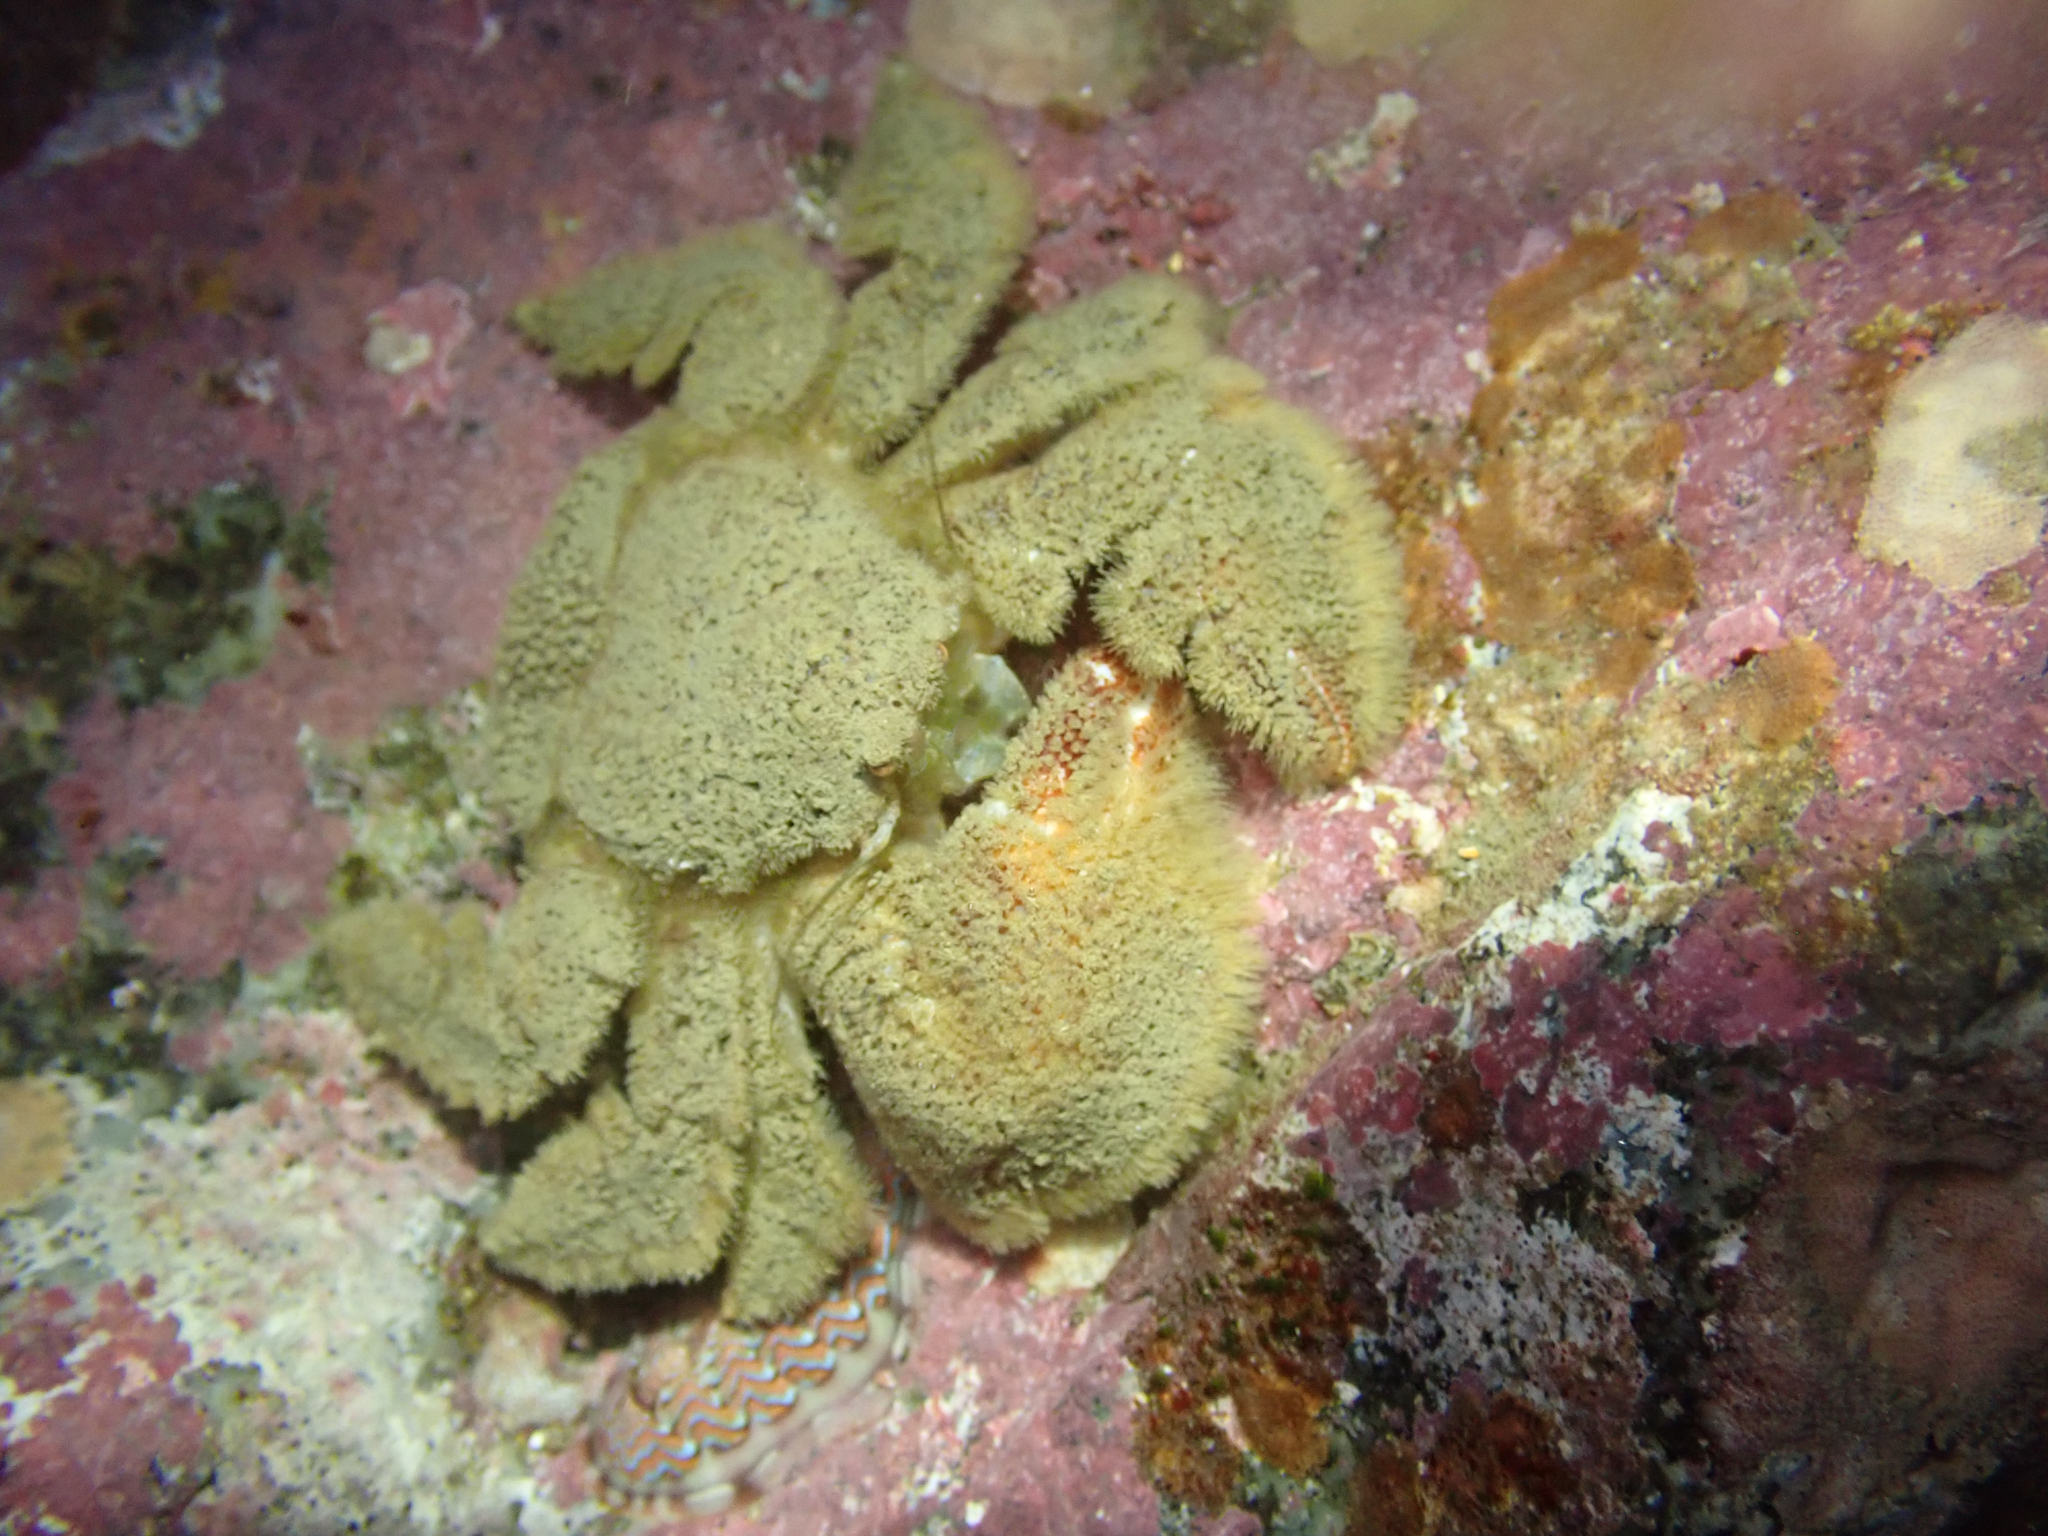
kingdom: Animalia
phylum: Arthropoda
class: Malacostraca
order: Decapoda
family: Hapalogastridae
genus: Hapalogaster
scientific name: Hapalogaster cavicauda
